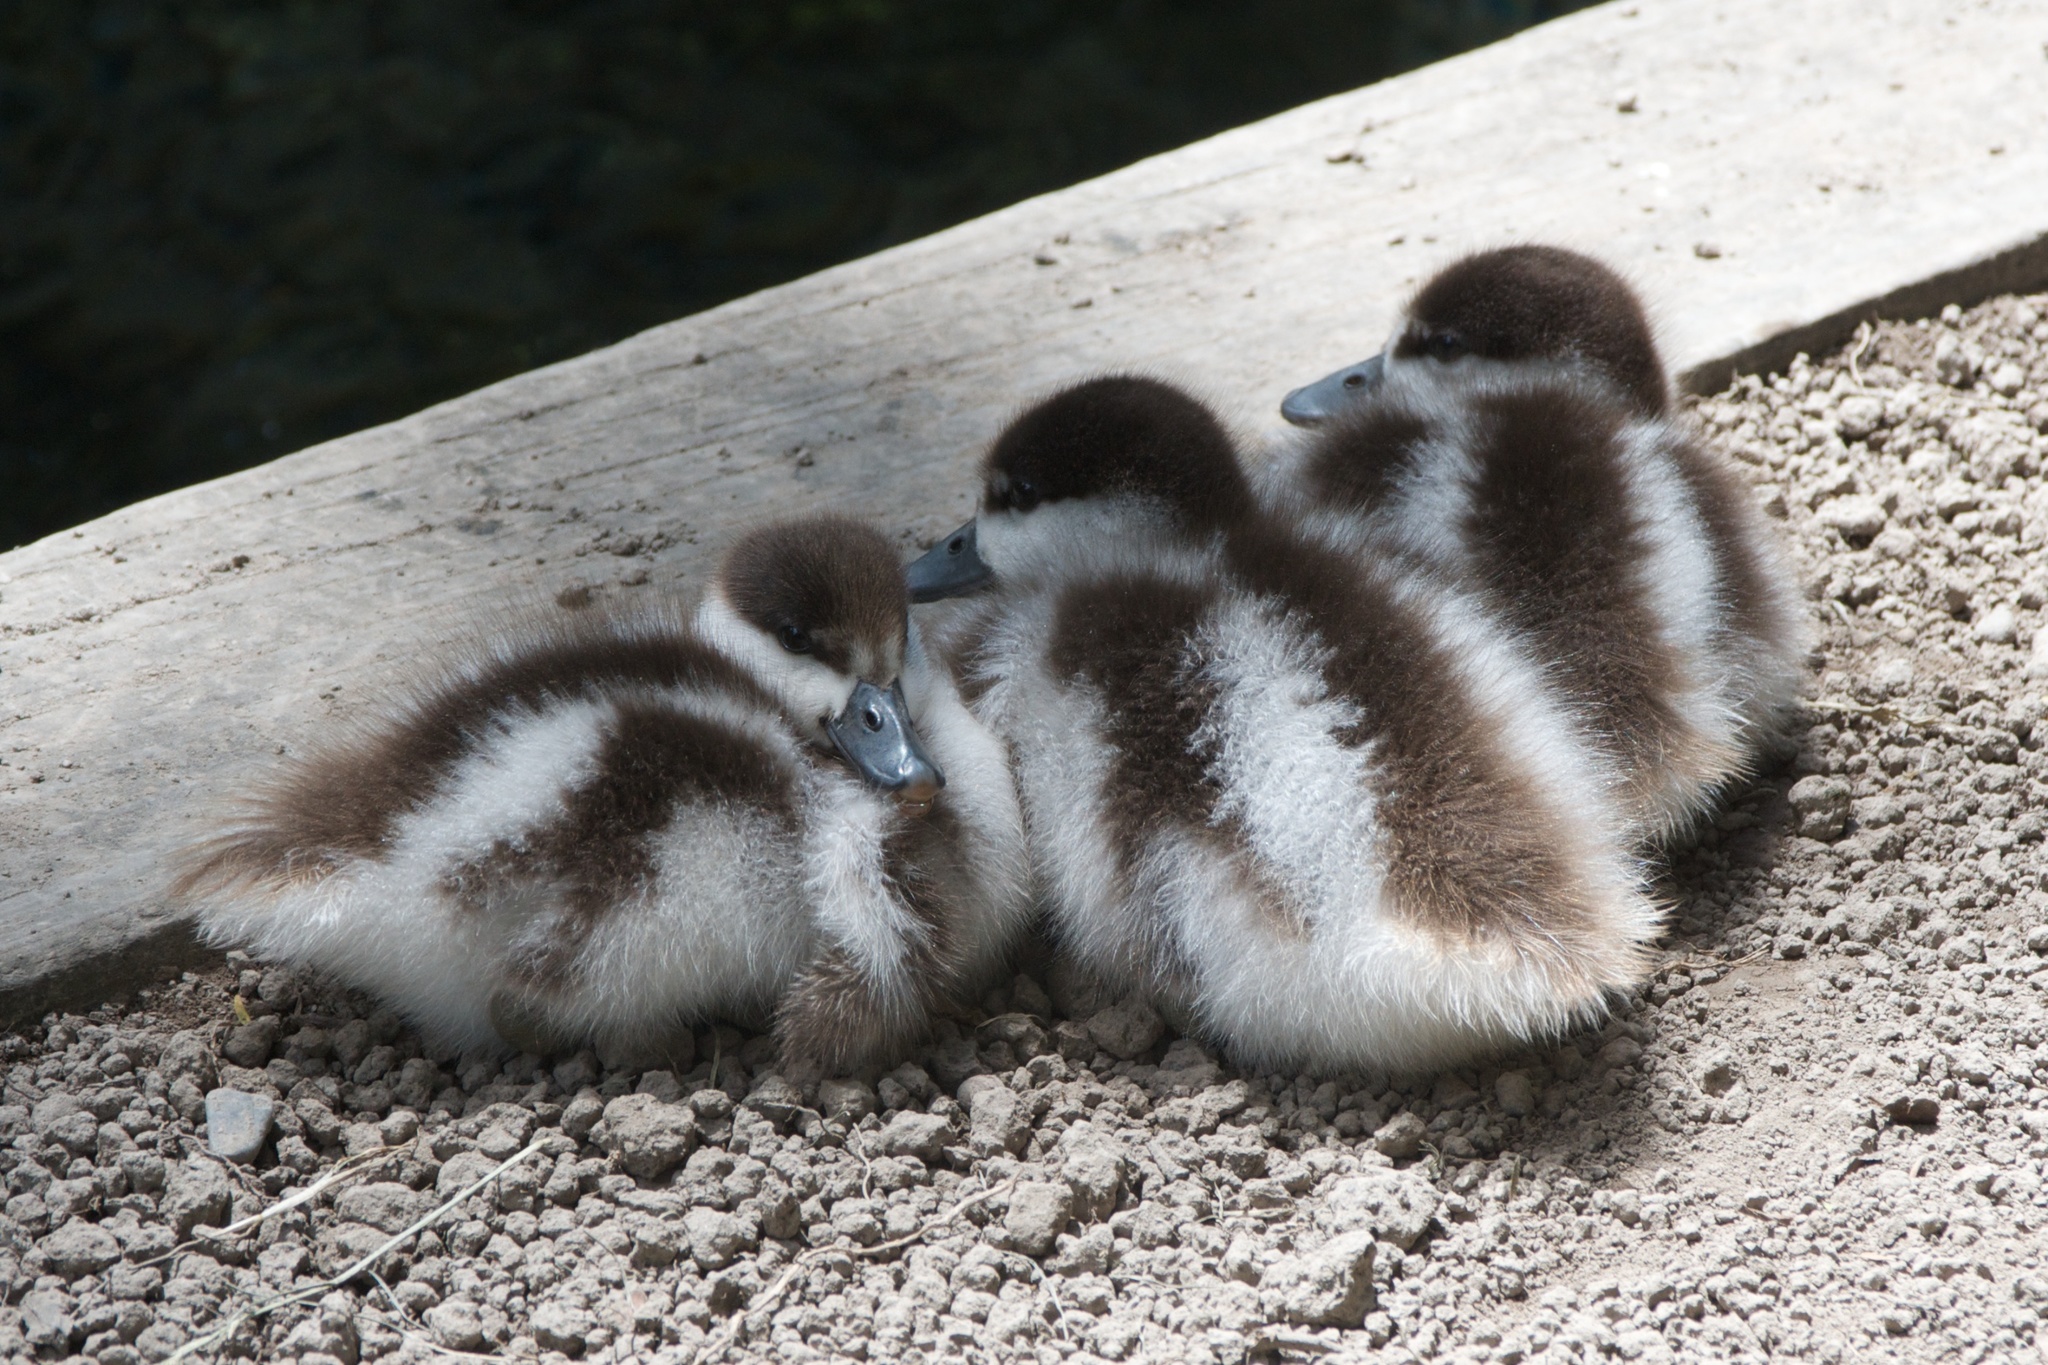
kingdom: Animalia
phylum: Chordata
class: Aves
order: Anseriformes
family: Anatidae
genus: Tadorna
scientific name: Tadorna variegata
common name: Paradise shelduck
